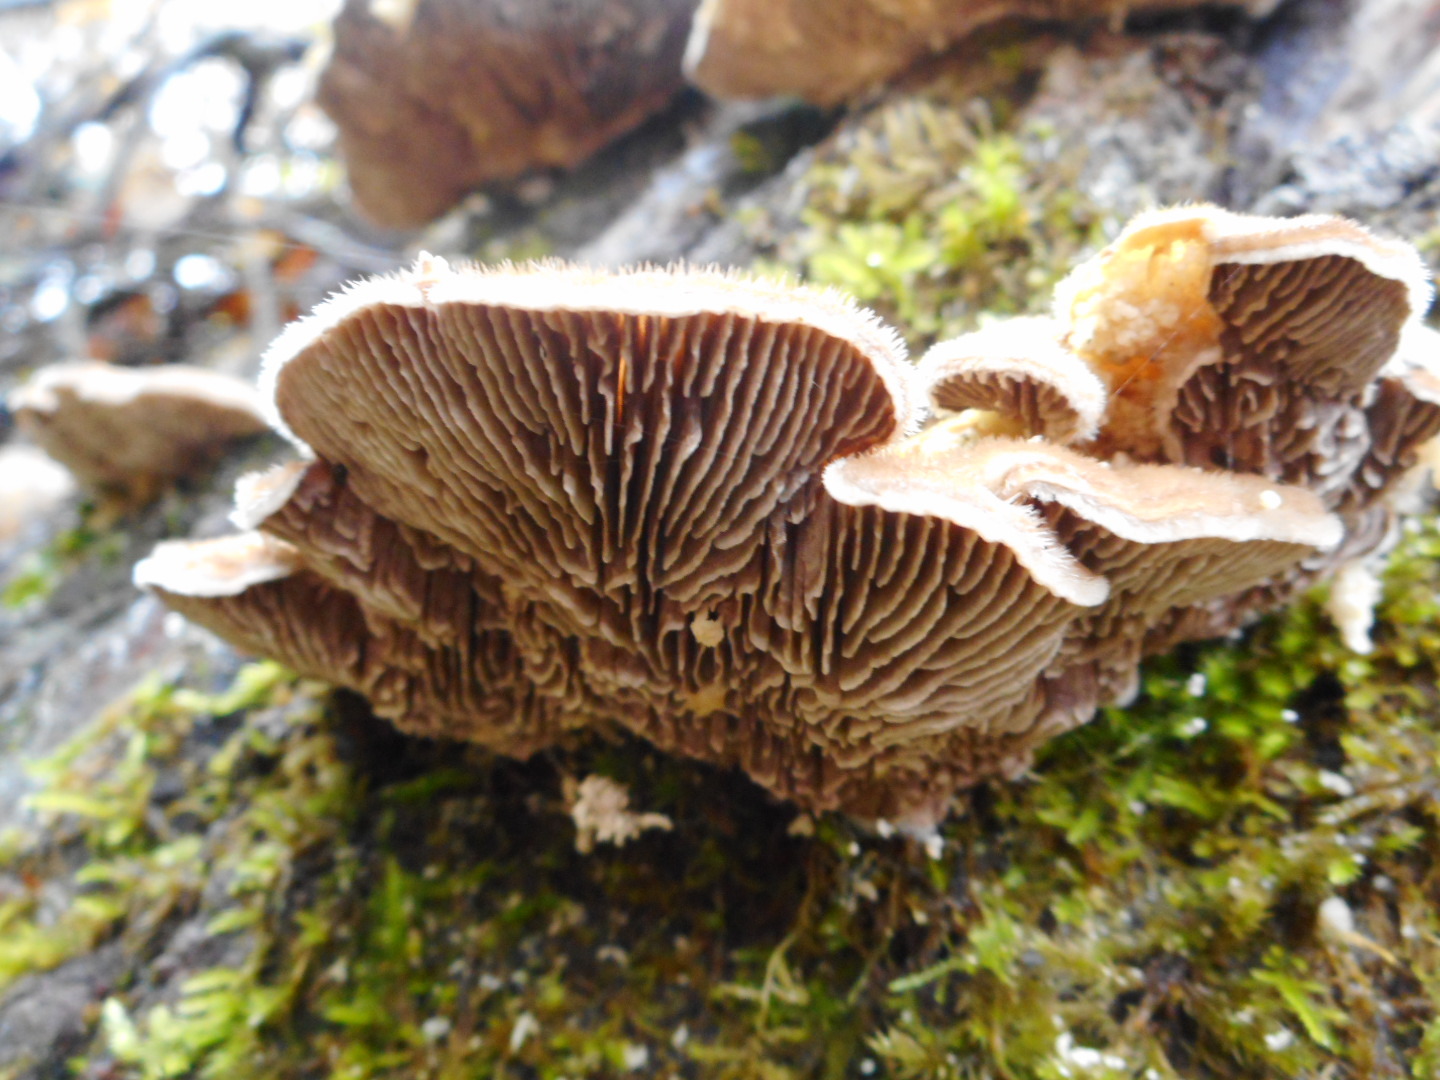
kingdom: Fungi
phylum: Basidiomycota
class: Agaricomycetes
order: Polyporales
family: Polyporaceae
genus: Lenzites
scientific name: Lenzites betulinus
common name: Birch mazegill
